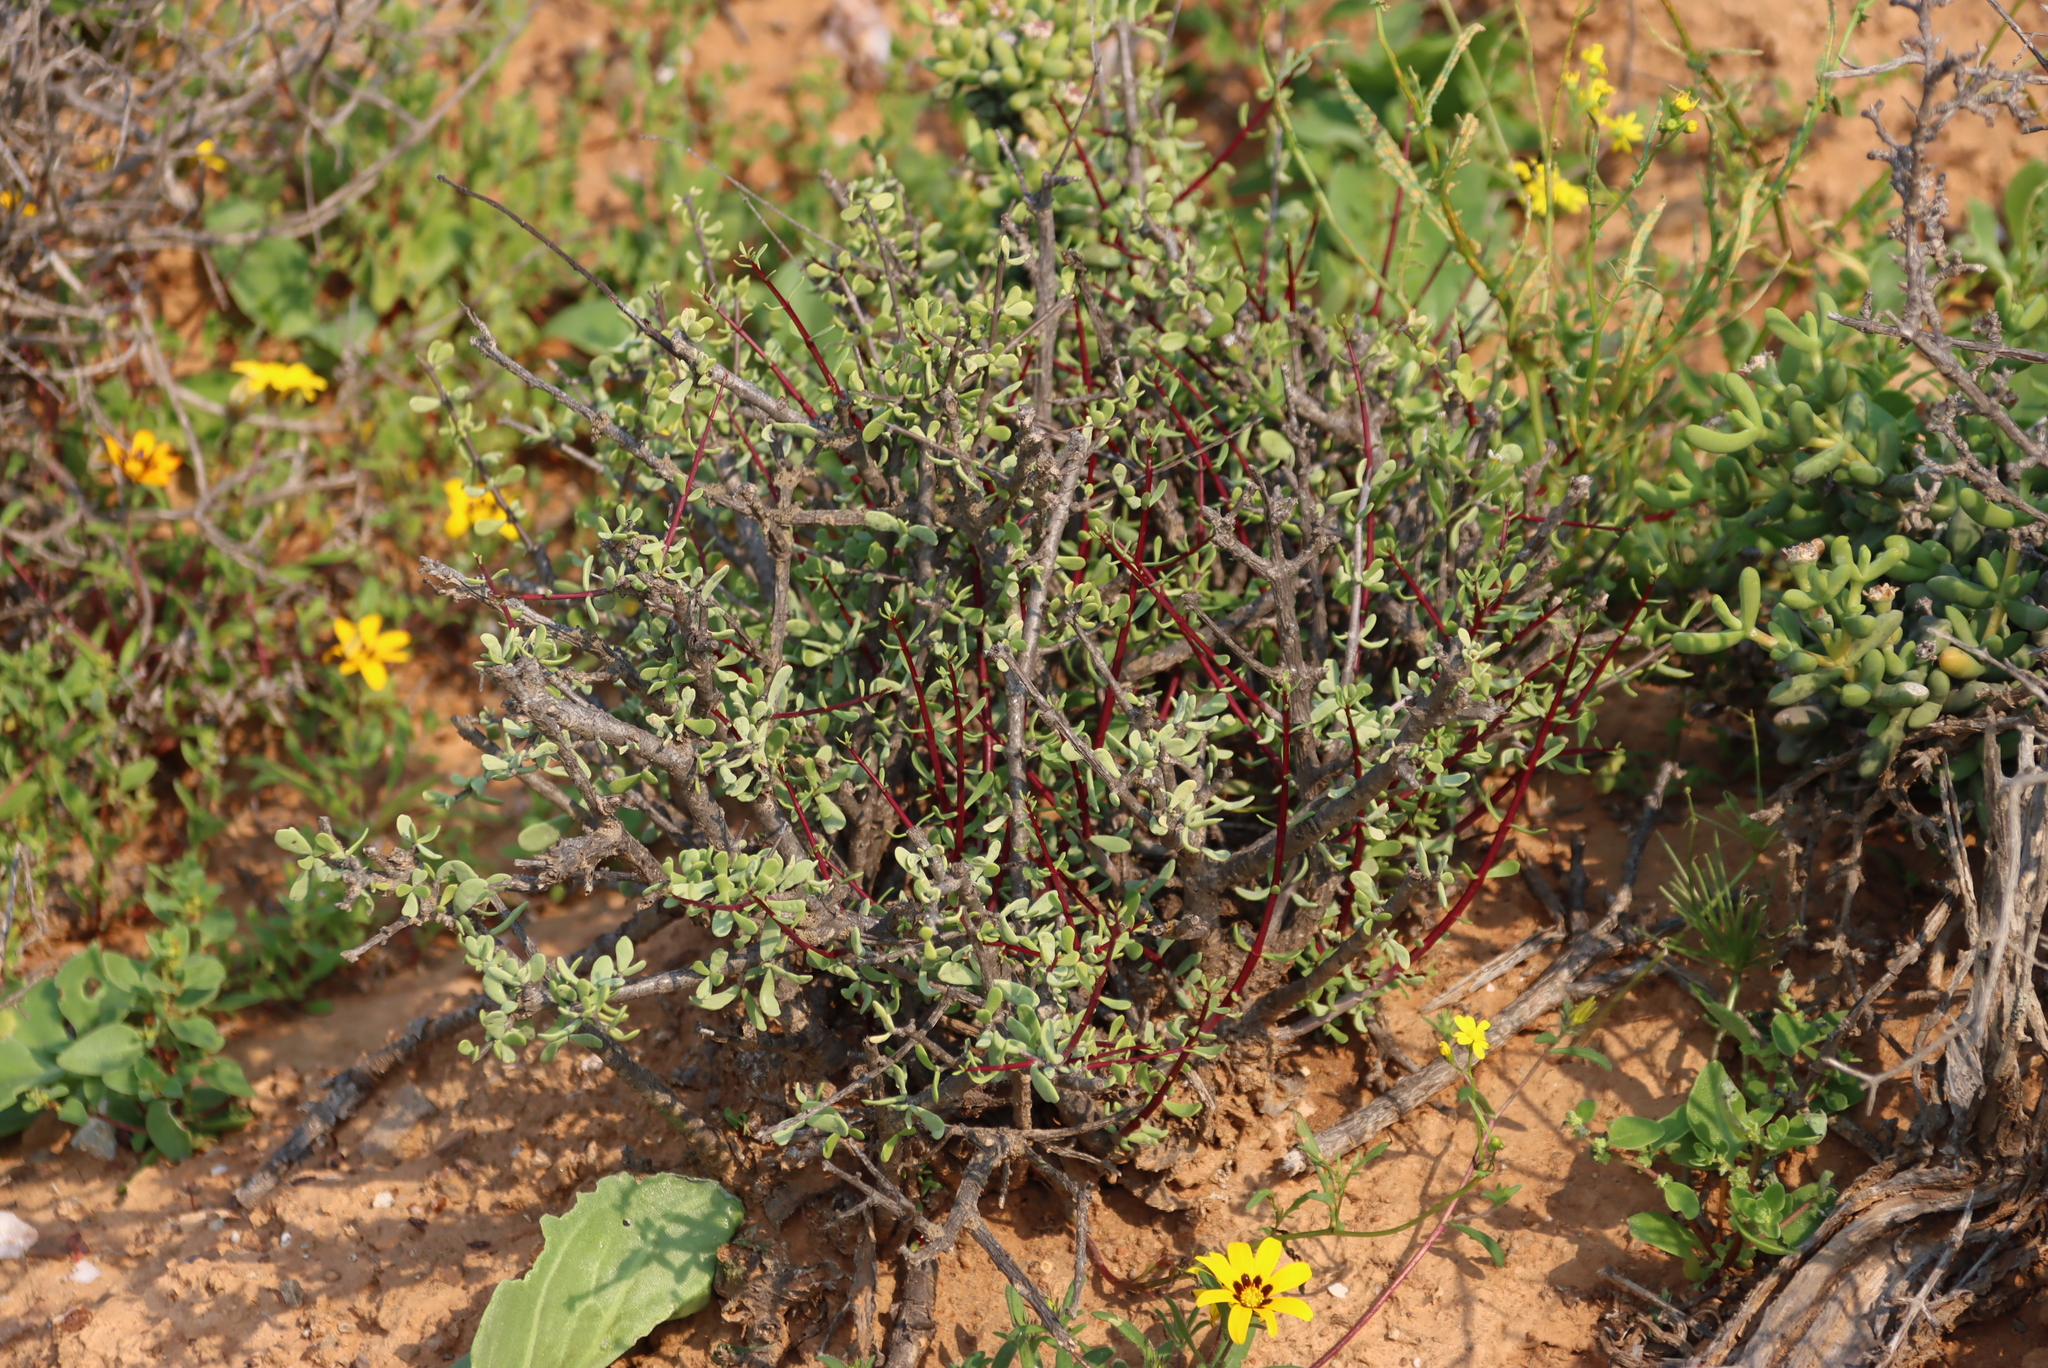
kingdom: Plantae
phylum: Tracheophyta
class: Magnoliopsida
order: Caryophyllales
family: Didiereaceae
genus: Portulacaria
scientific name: Portulacaria fruticulosa
